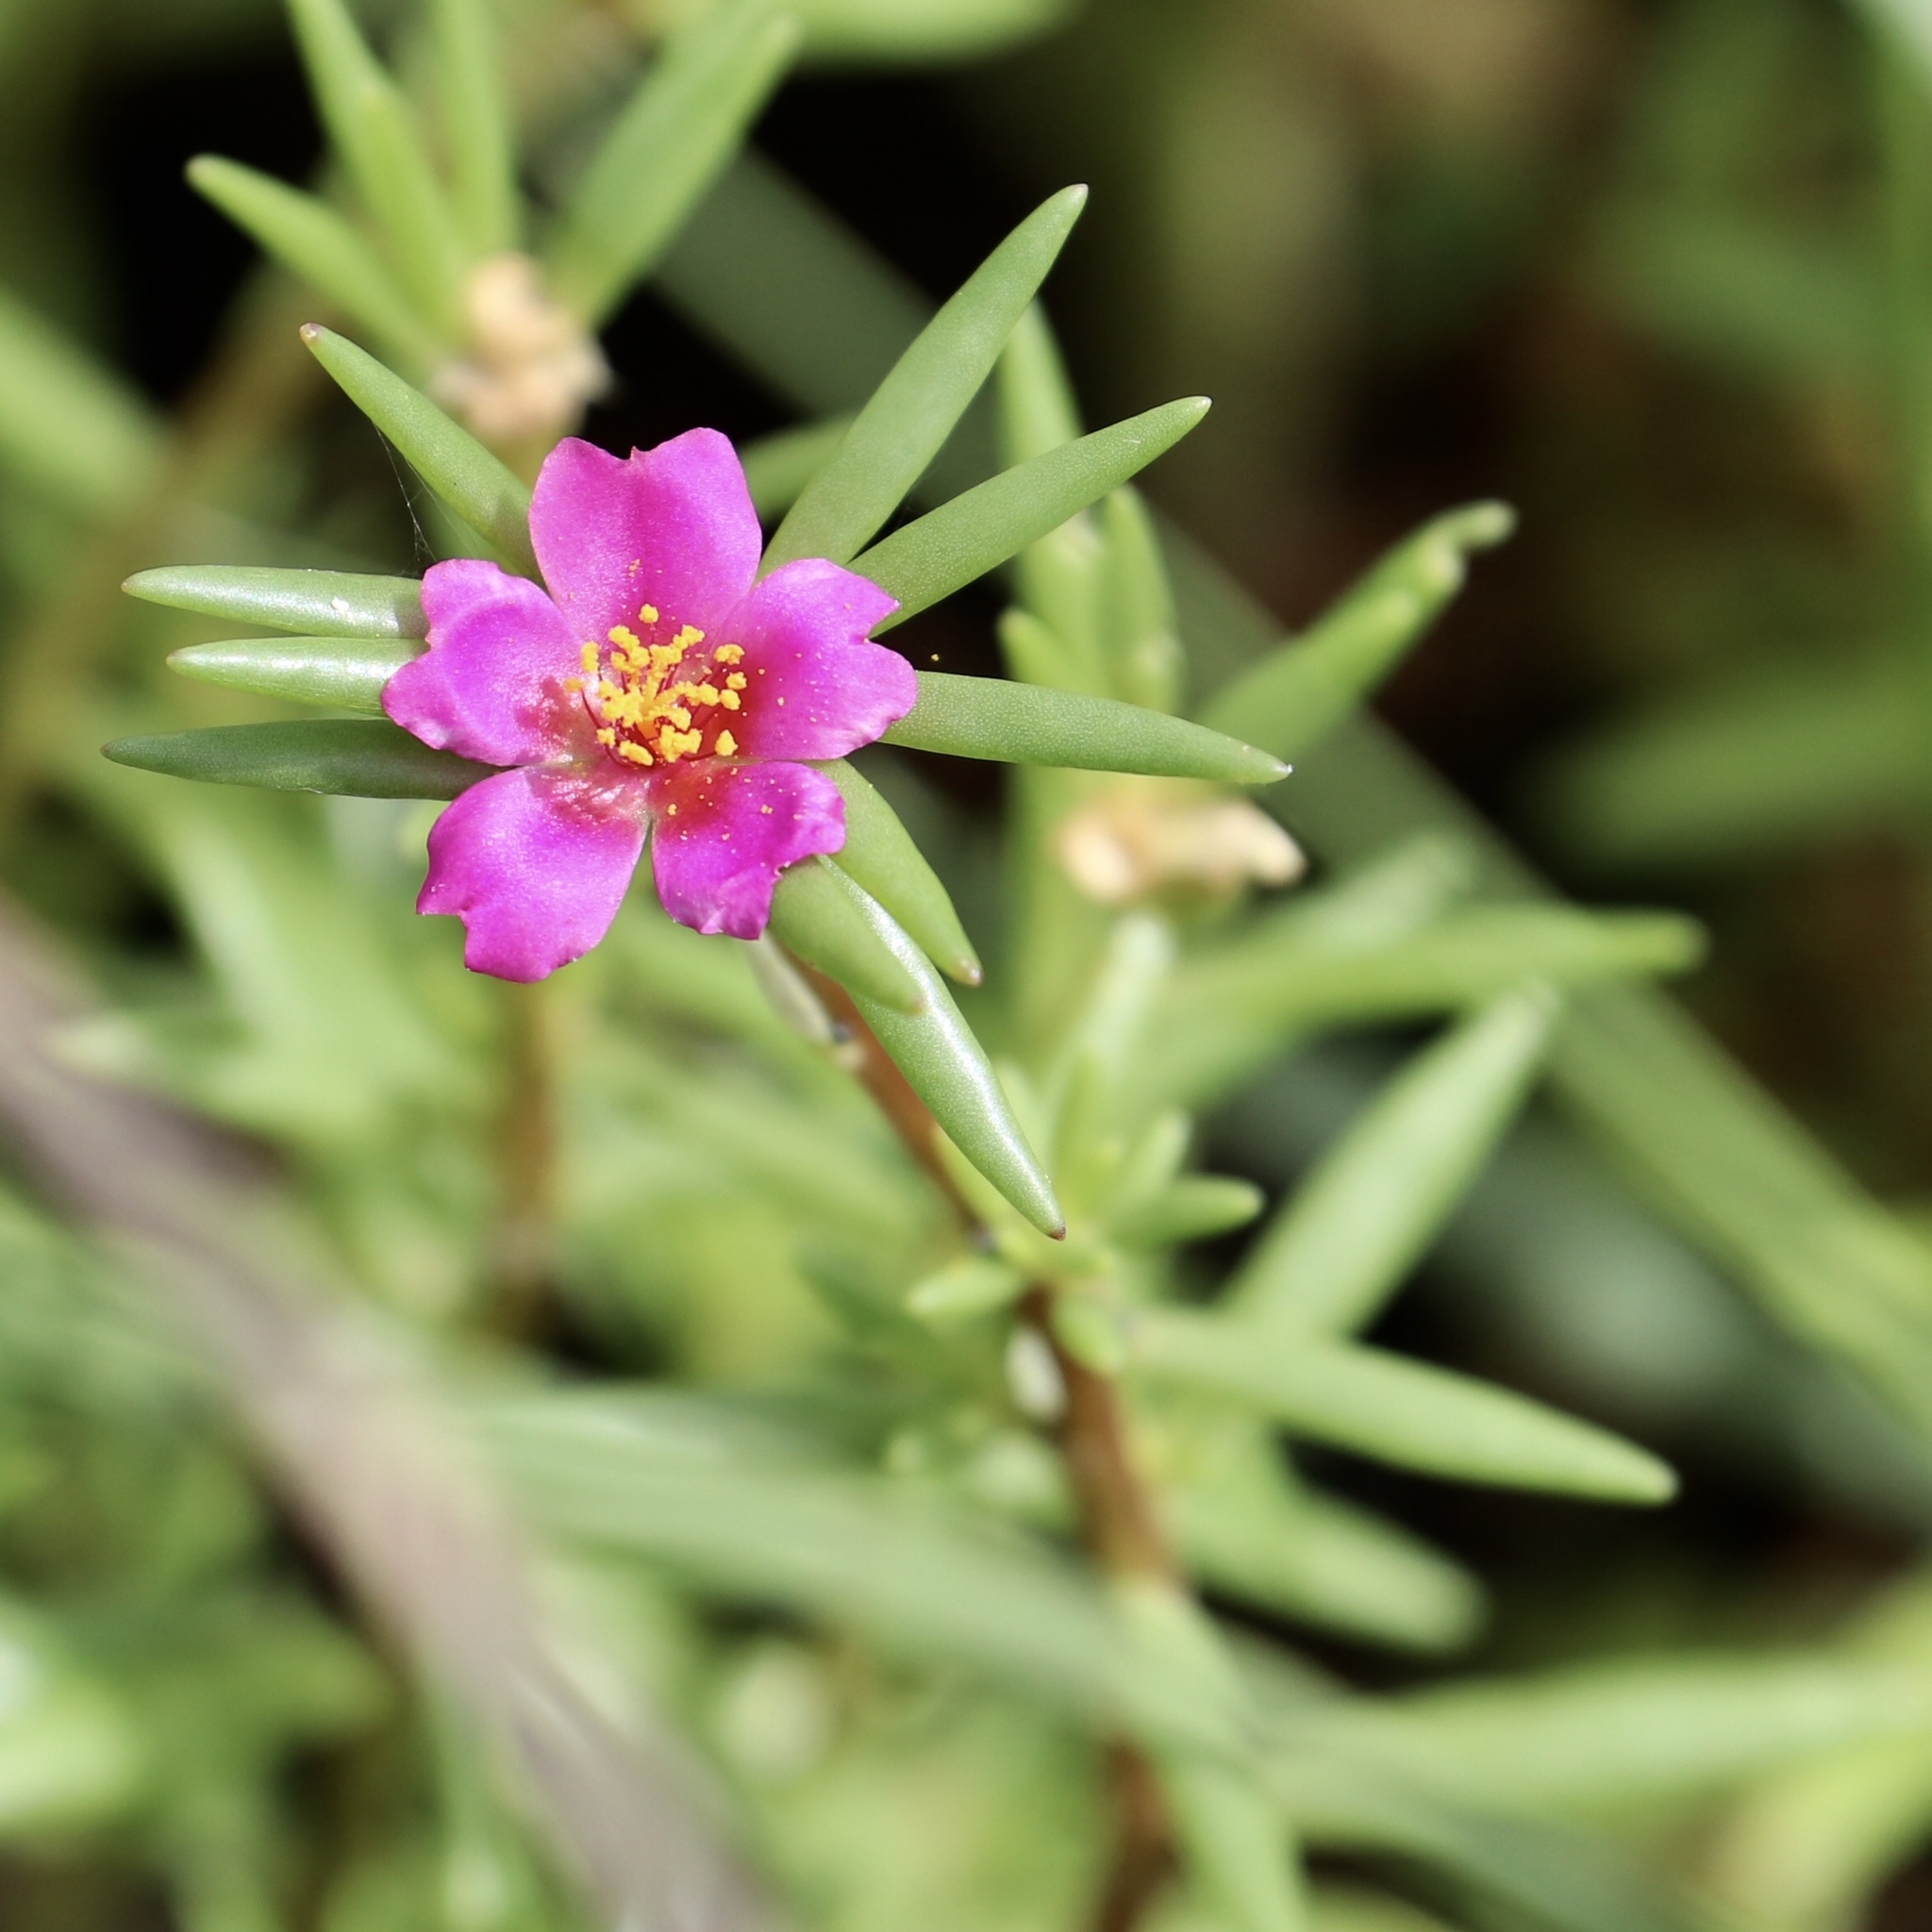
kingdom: Plantae
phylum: Tracheophyta
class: Magnoliopsida
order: Caryophyllales
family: Portulacaceae
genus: Portulaca
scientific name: Portulaca pilosa
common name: Kiss me quick
